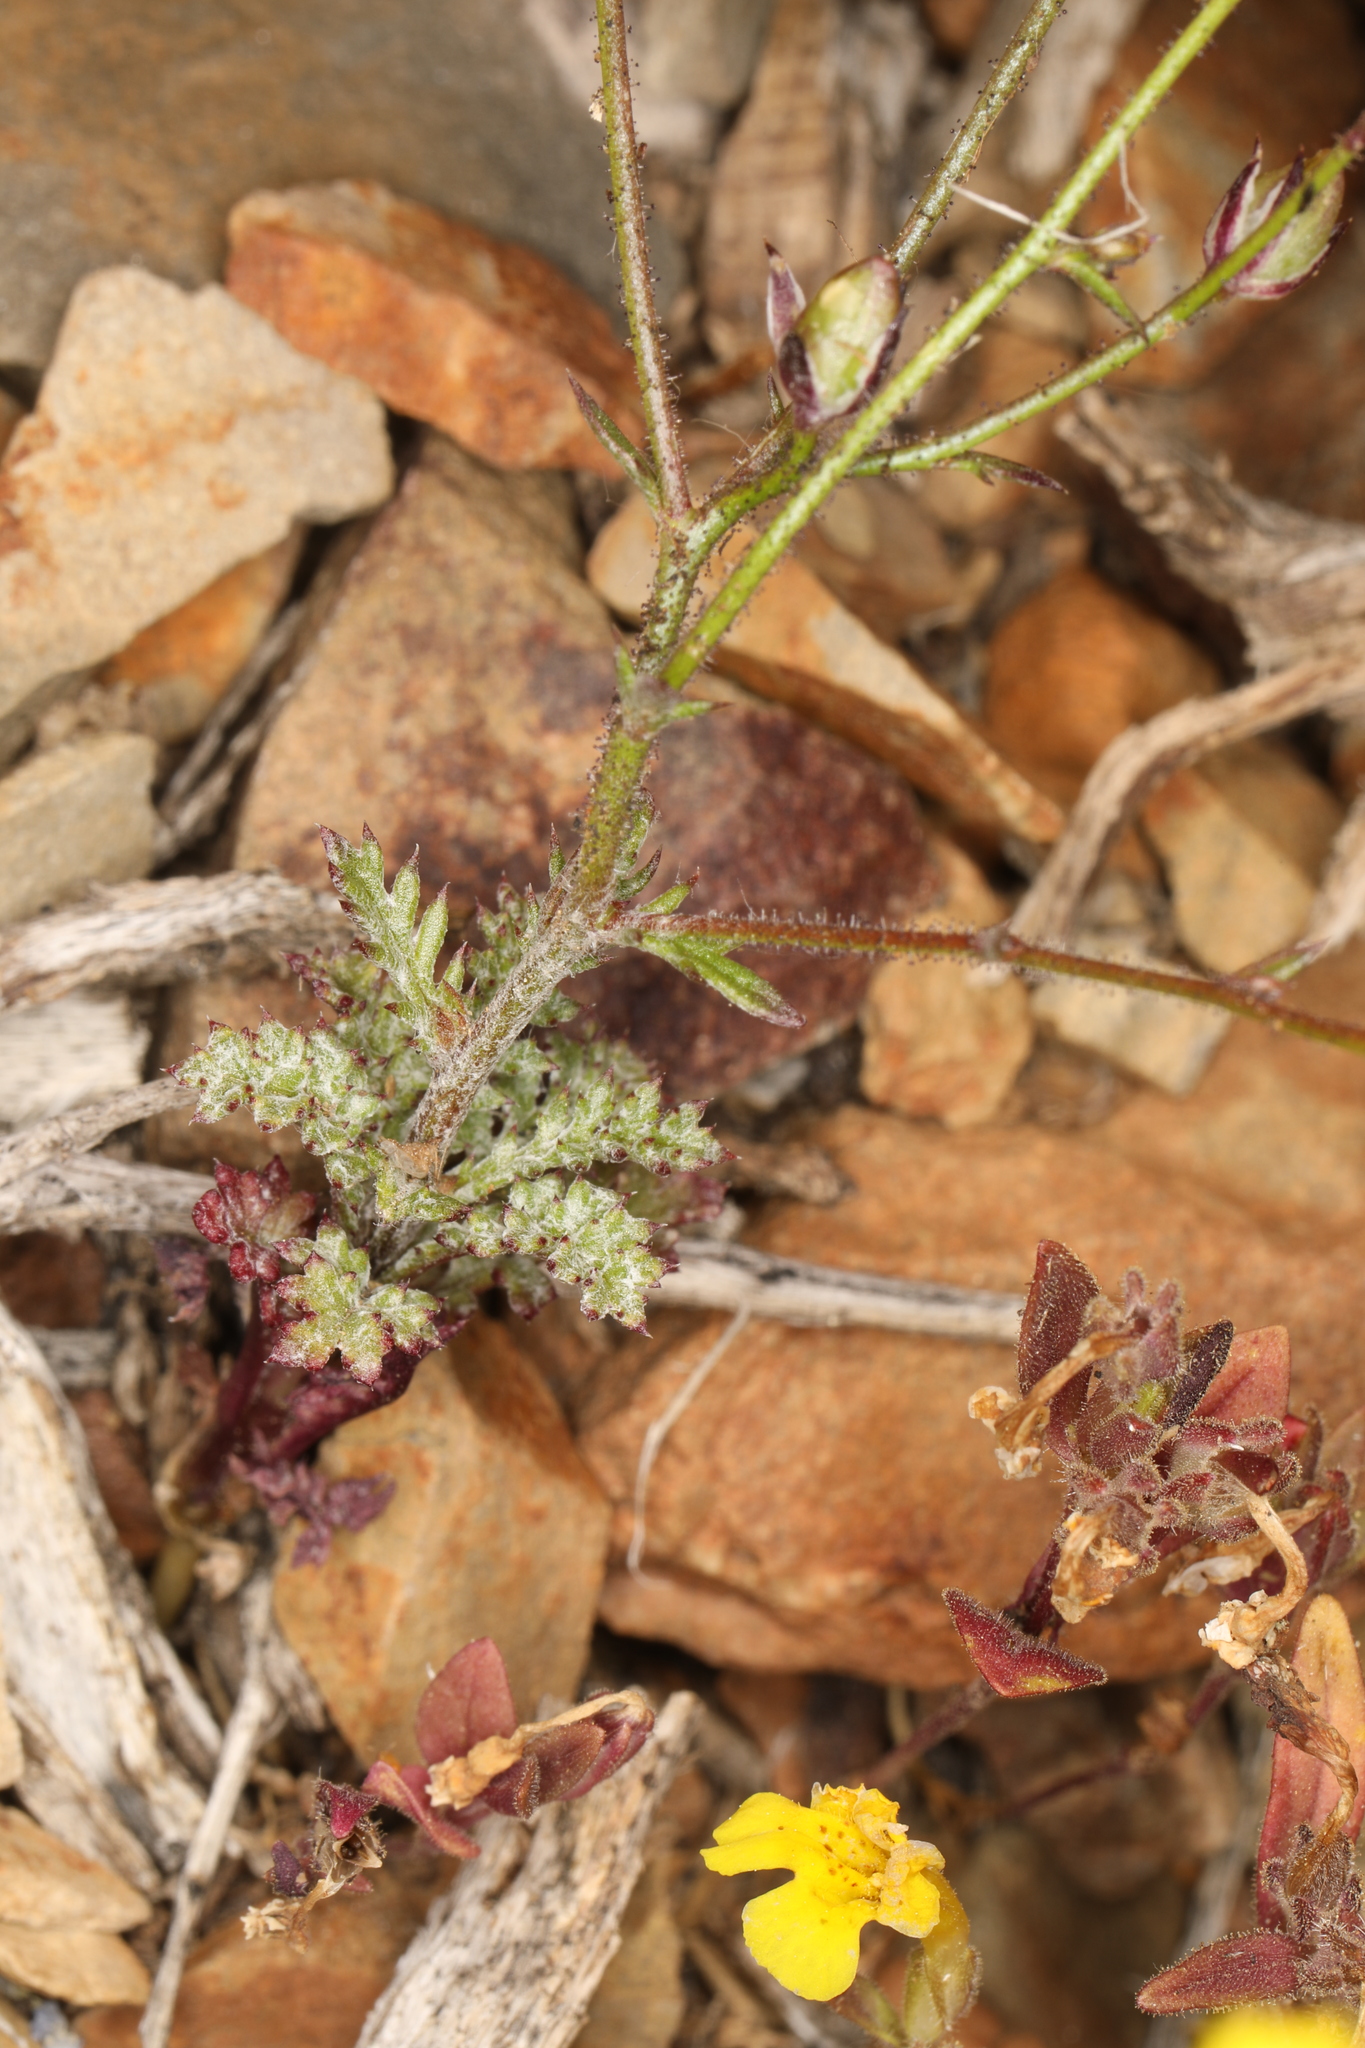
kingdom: Plantae
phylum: Tracheophyta
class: Magnoliopsida
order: Ericales
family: Polemoniaceae
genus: Gilia
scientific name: Gilia ophthalmoides
